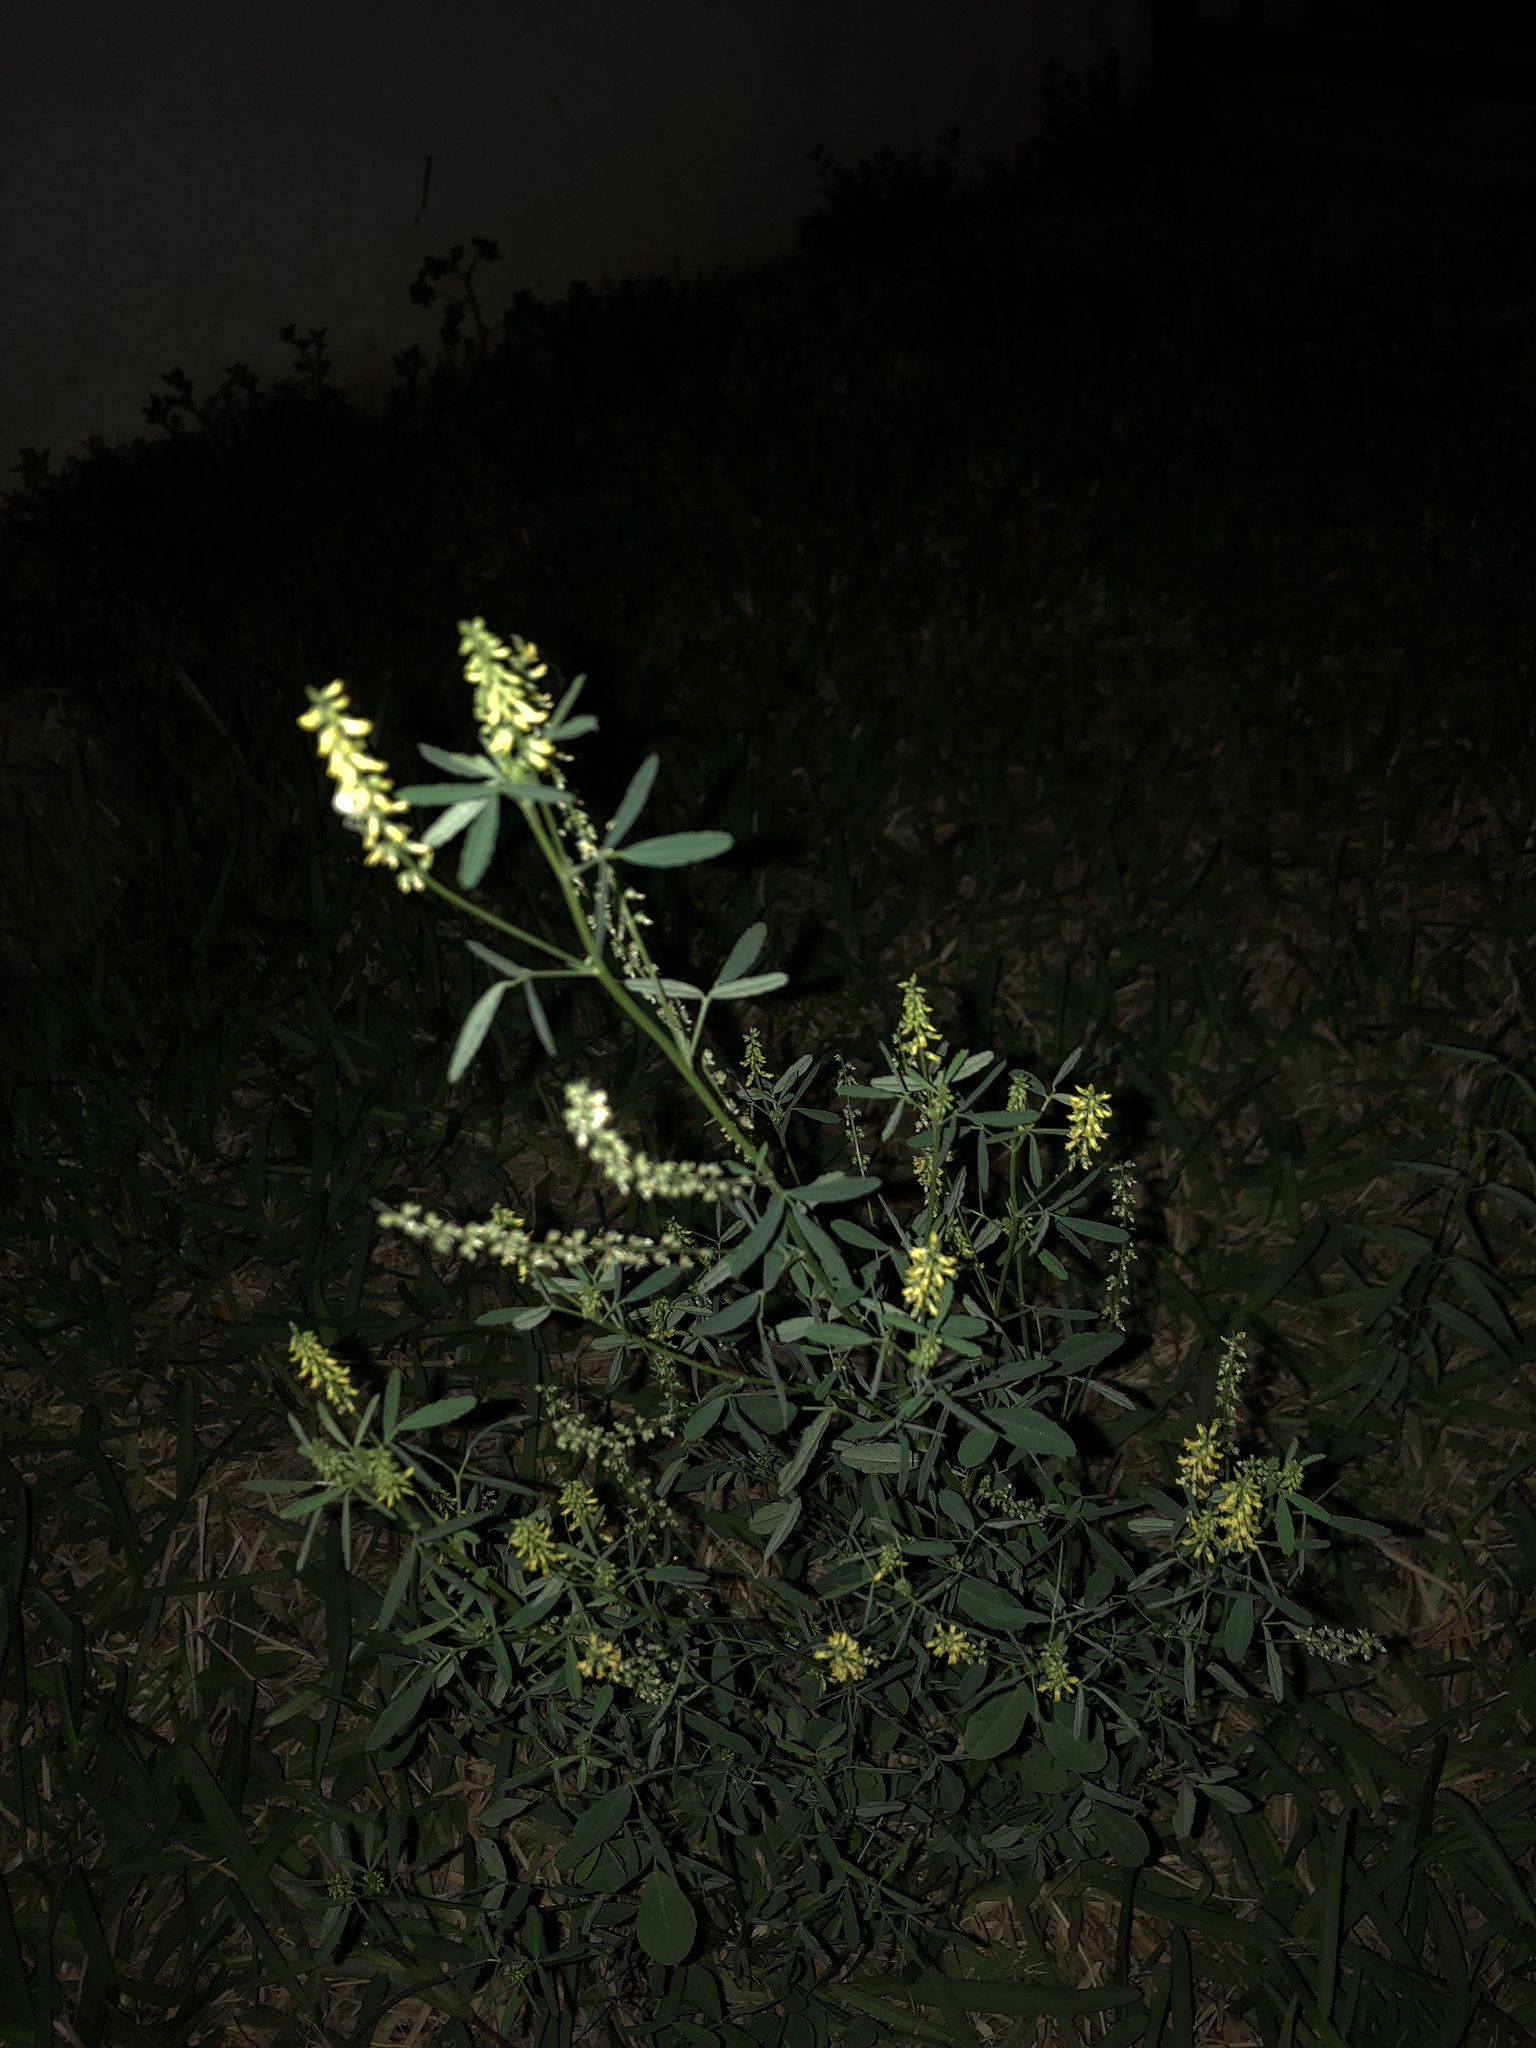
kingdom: Plantae
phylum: Tracheophyta
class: Magnoliopsida
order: Fabales
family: Fabaceae
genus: Melilotus
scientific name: Melilotus indicus
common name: Small melilot
